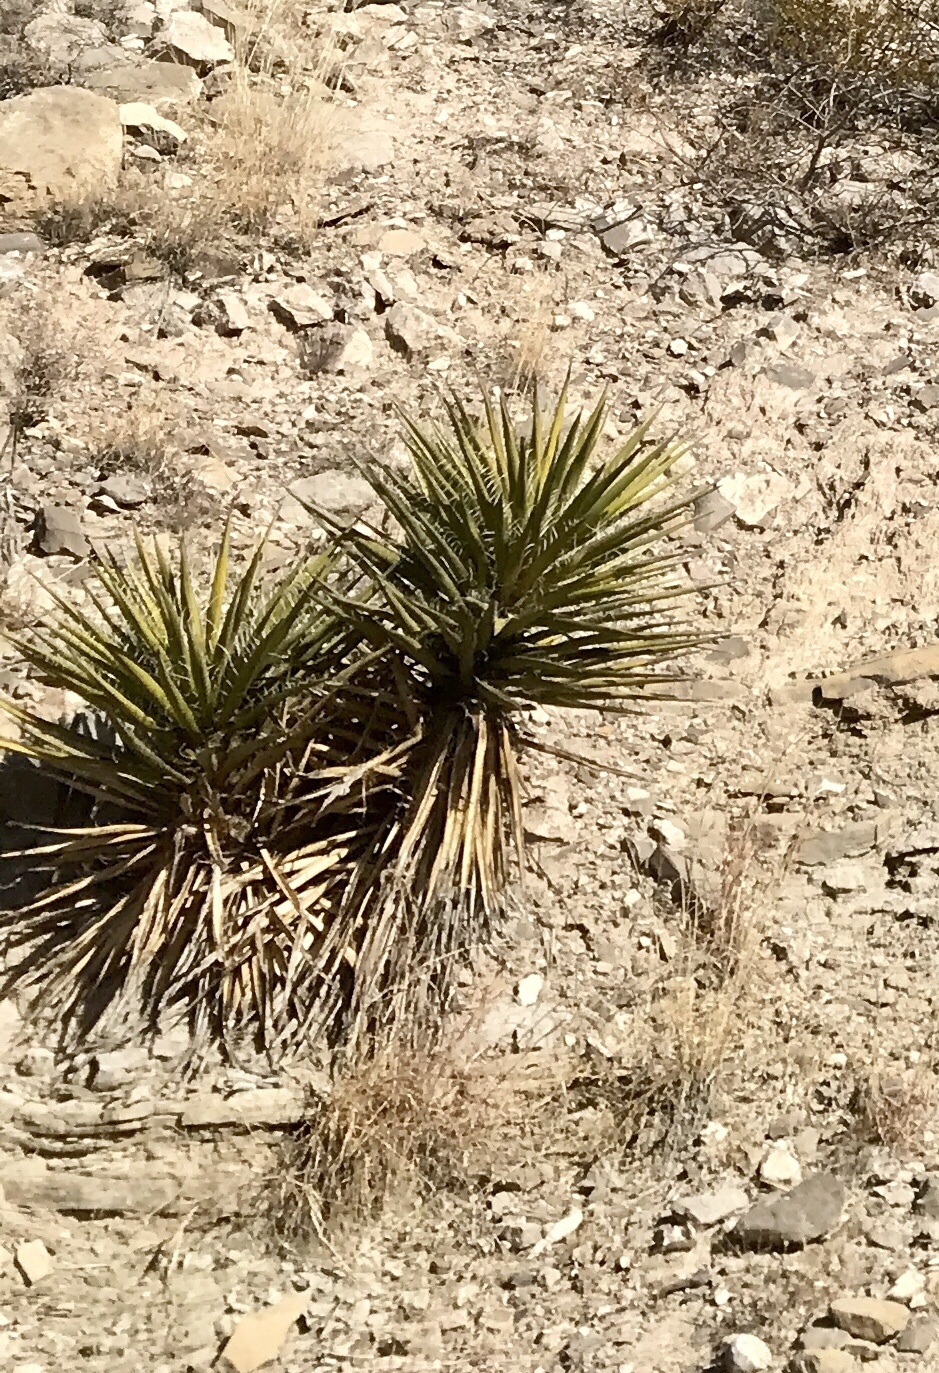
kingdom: Plantae
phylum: Tracheophyta
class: Liliopsida
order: Asparagales
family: Asparagaceae
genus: Yucca
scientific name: Yucca treculiana
